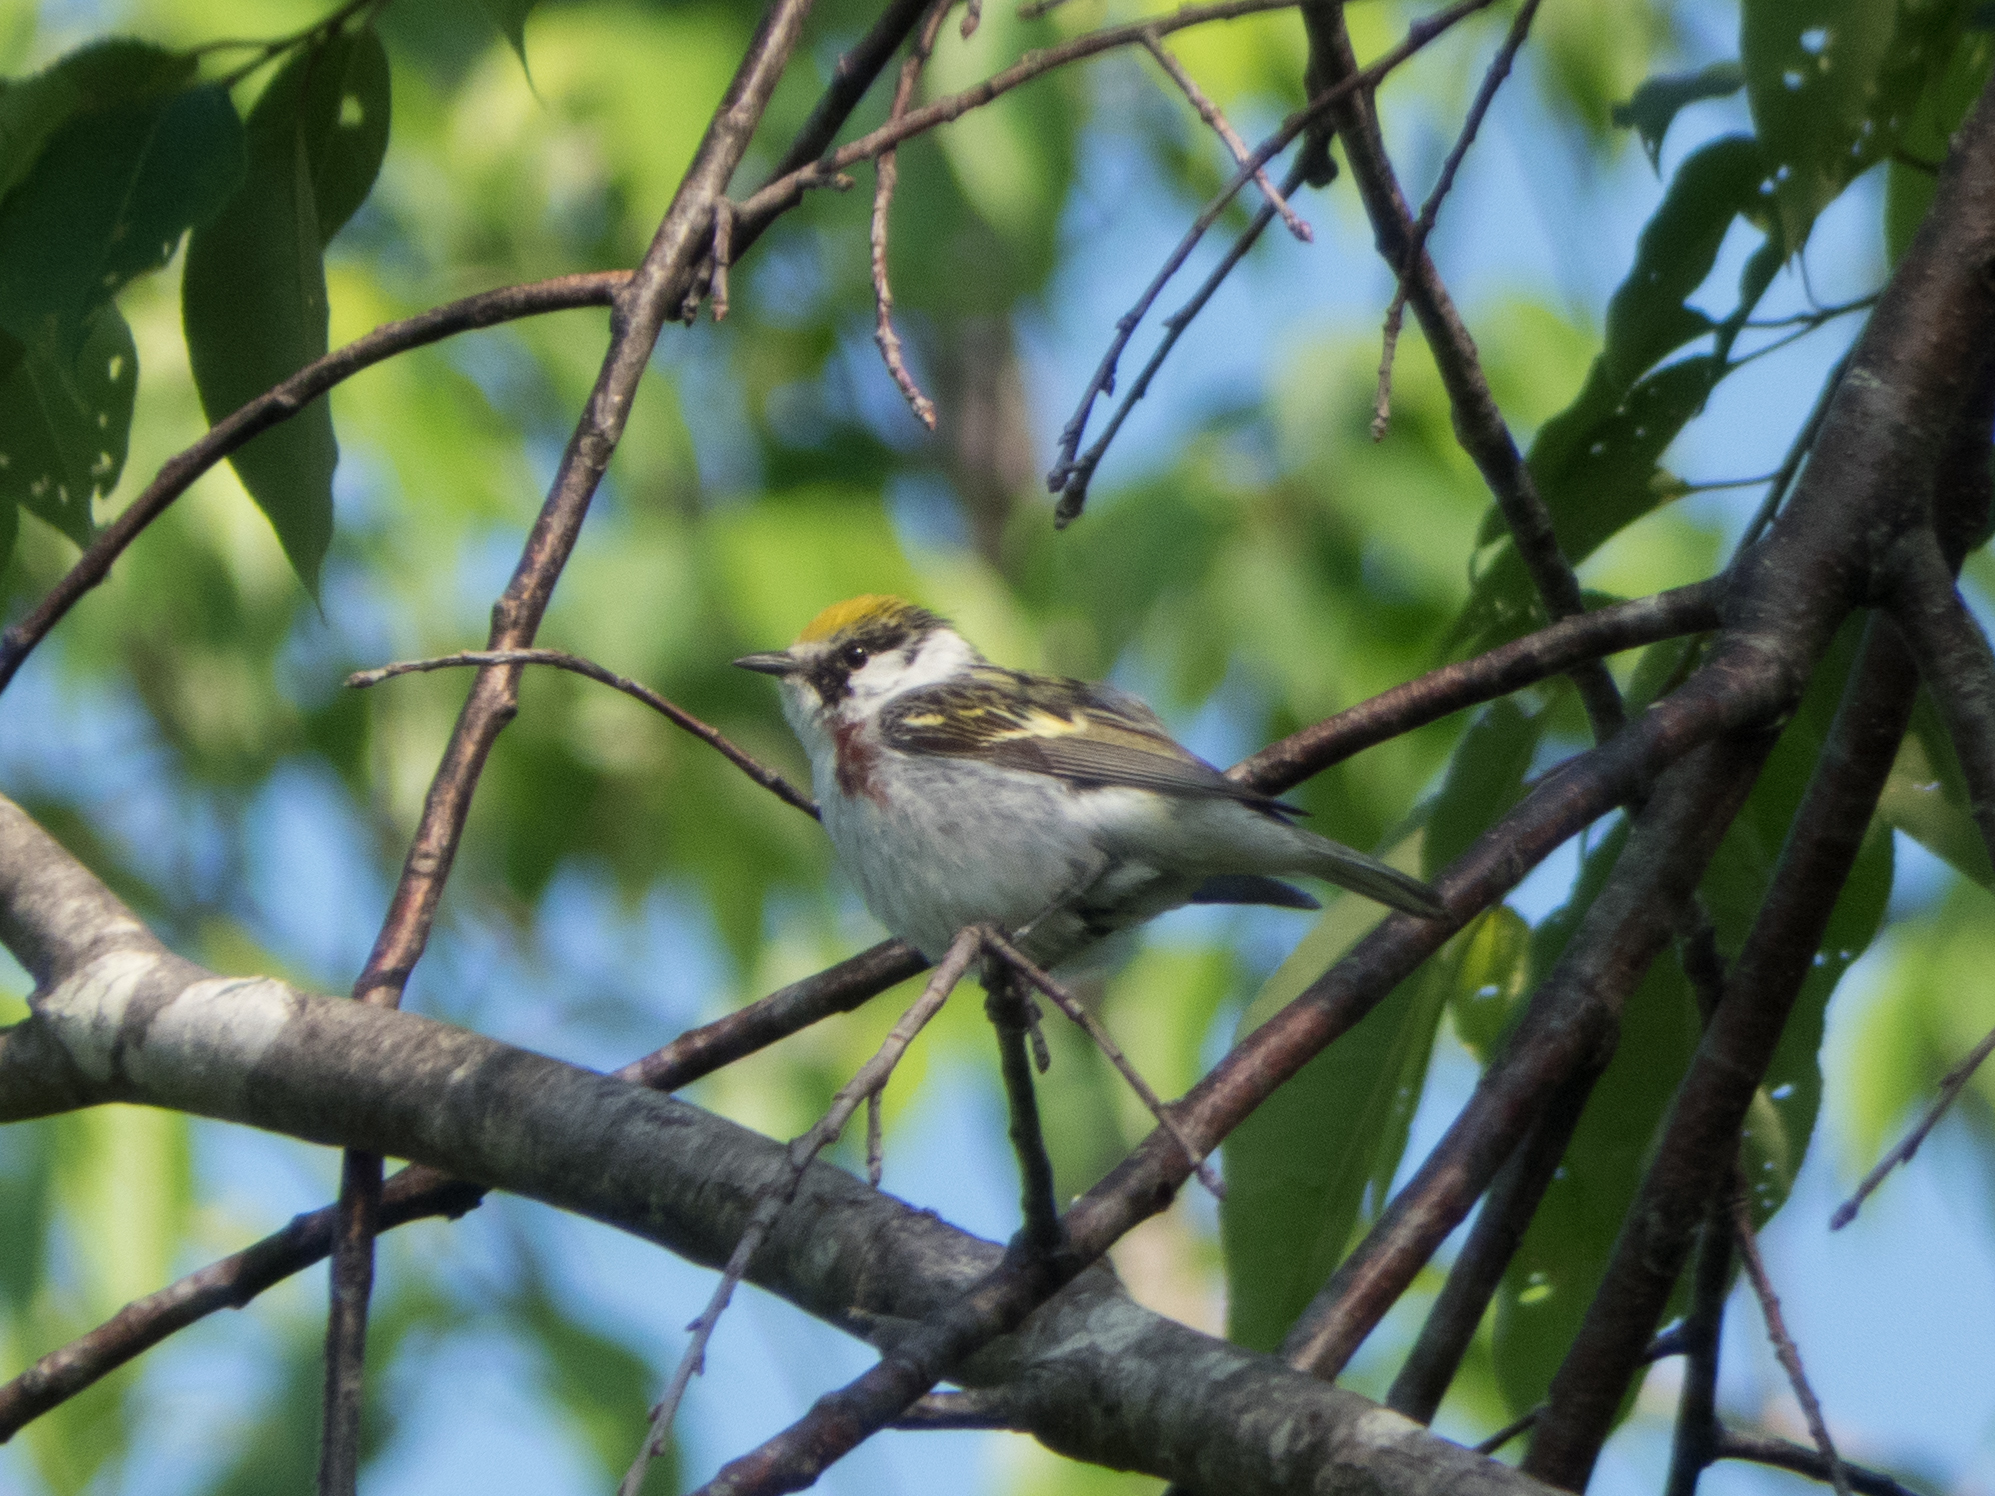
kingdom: Animalia
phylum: Chordata
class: Aves
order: Passeriformes
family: Parulidae
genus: Setophaga
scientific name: Setophaga pensylvanica
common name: Chestnut-sided warbler
